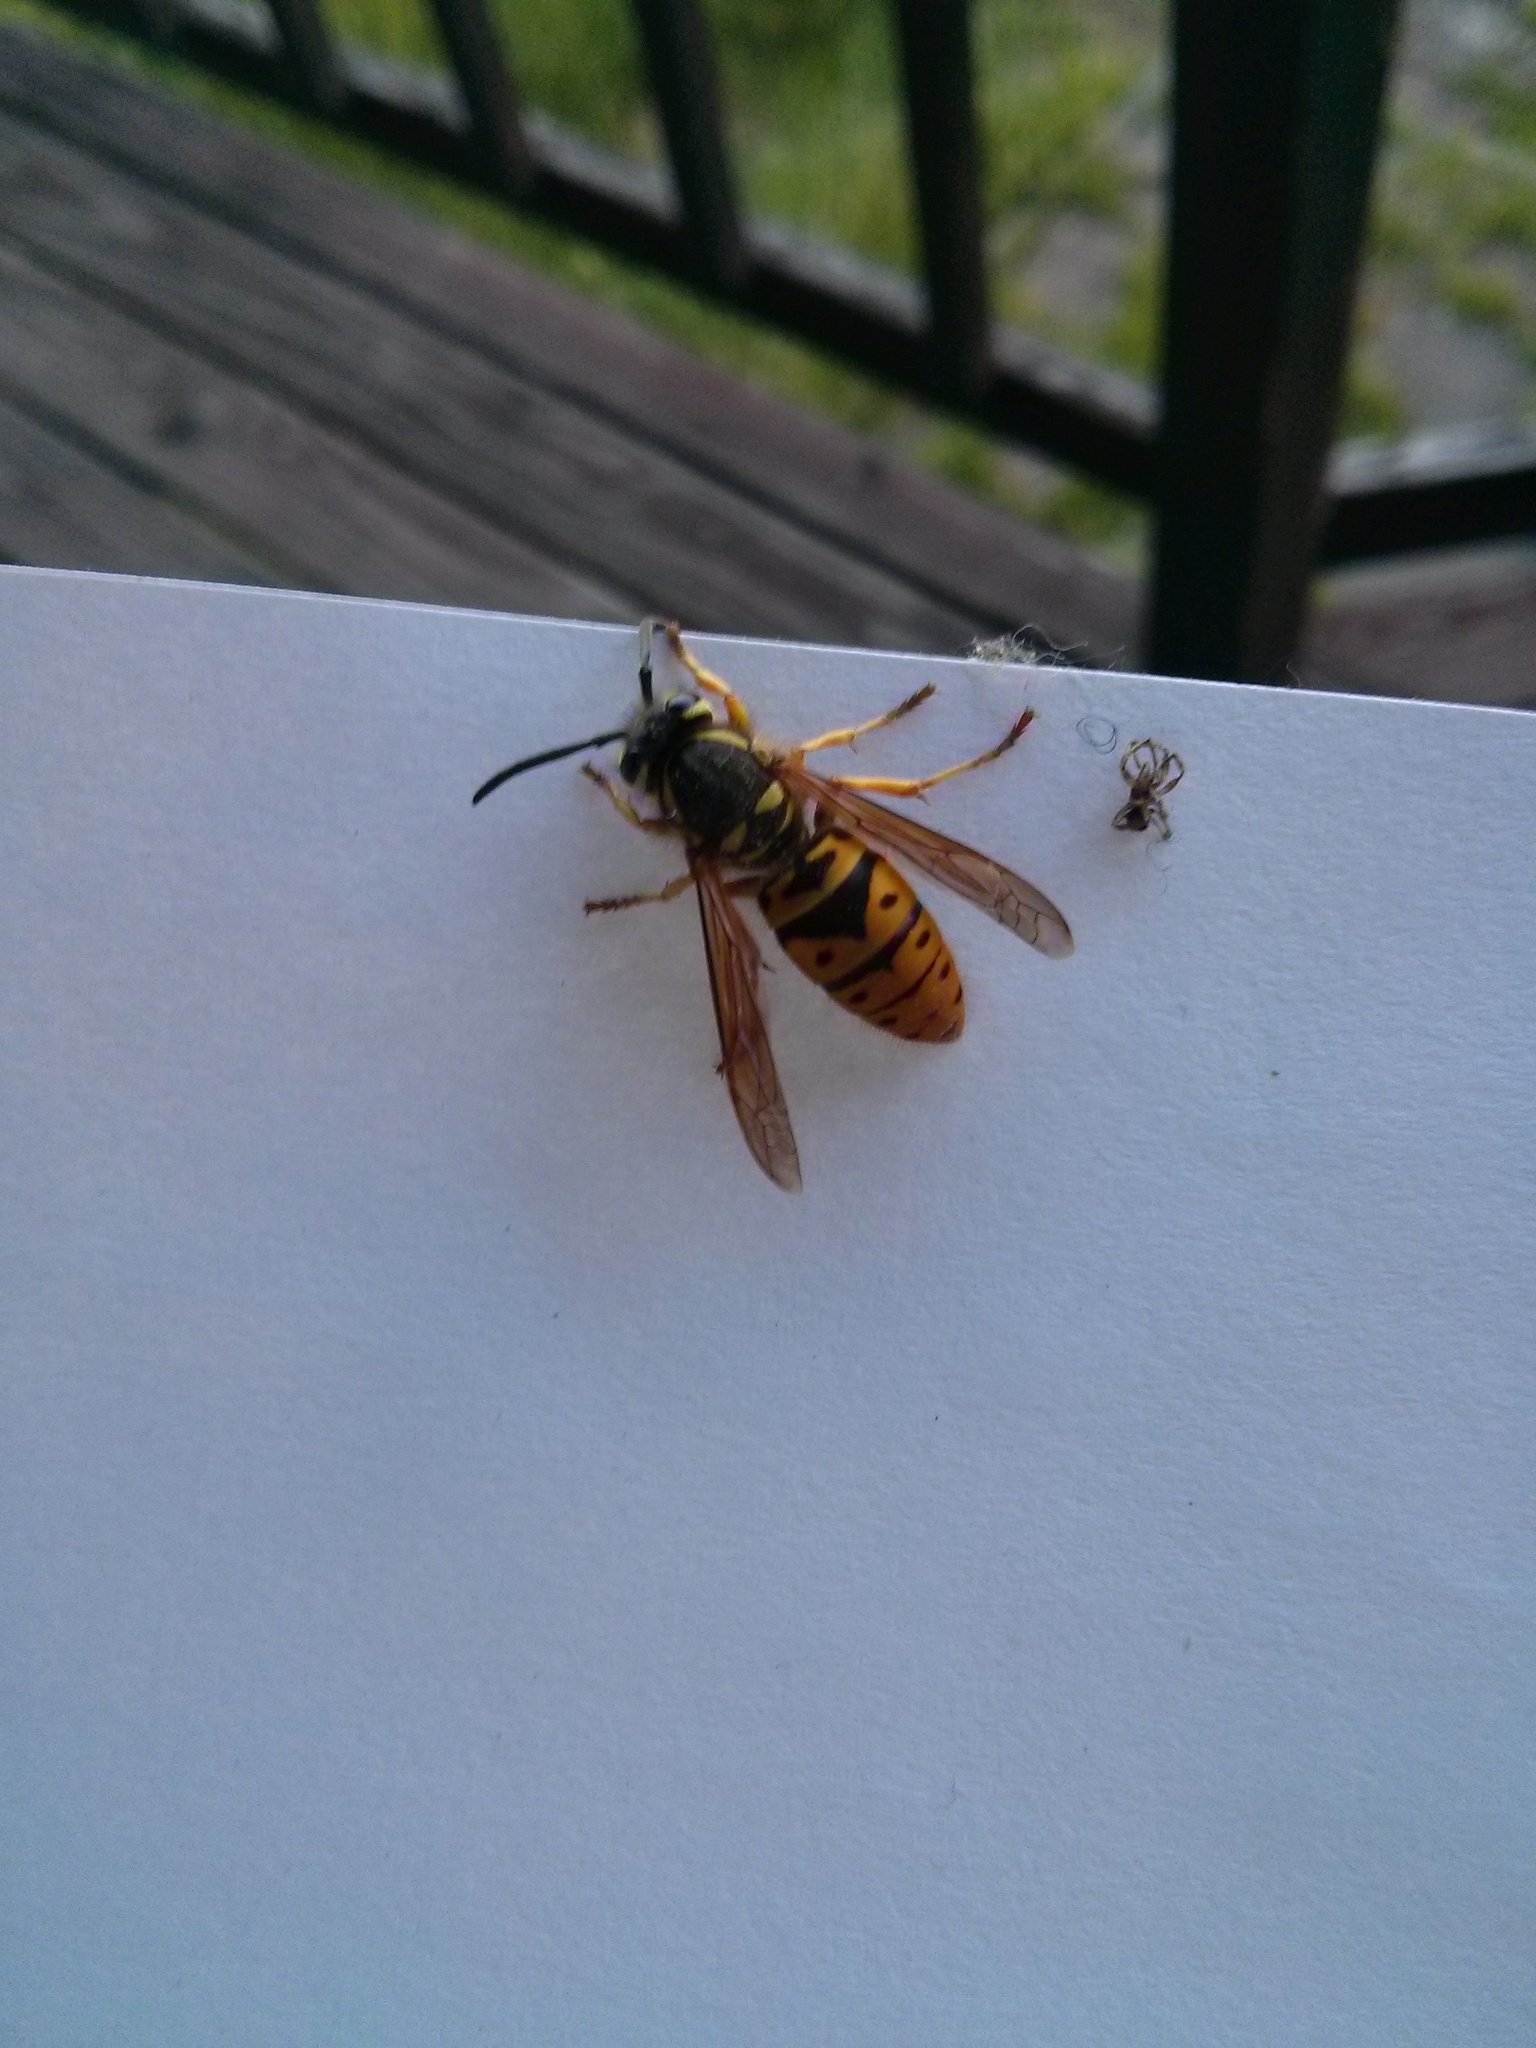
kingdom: Animalia
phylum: Arthropoda
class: Insecta
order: Hymenoptera
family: Vespidae
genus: Vespula
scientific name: Vespula maculifrons
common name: Eastern yellowjacket
